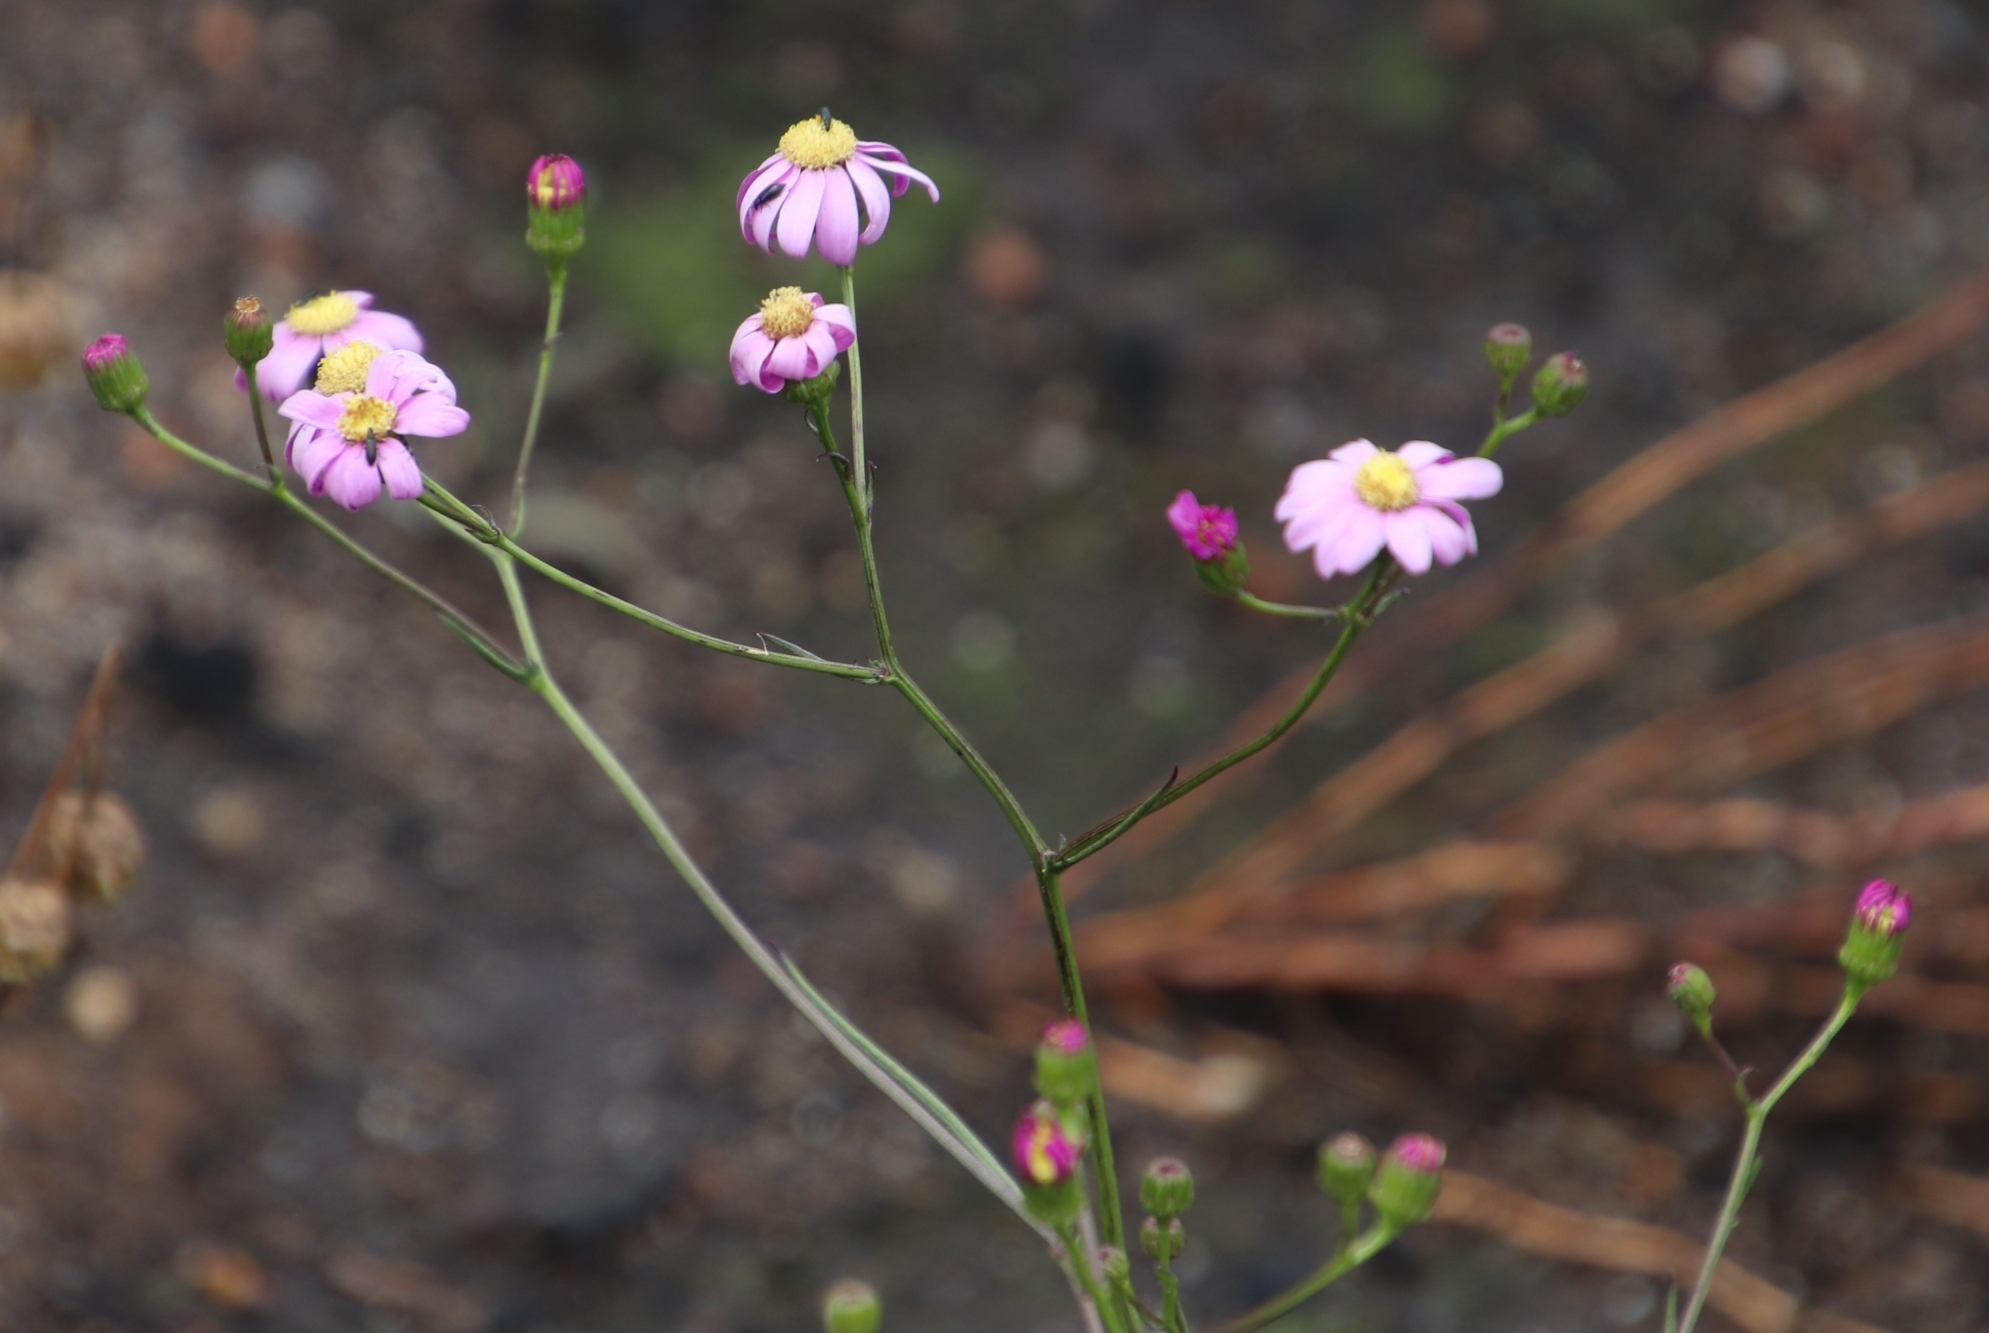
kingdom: Plantae
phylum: Tracheophyta
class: Magnoliopsida
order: Asterales
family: Asteraceae
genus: Senecio
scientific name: Senecio umbellatus
